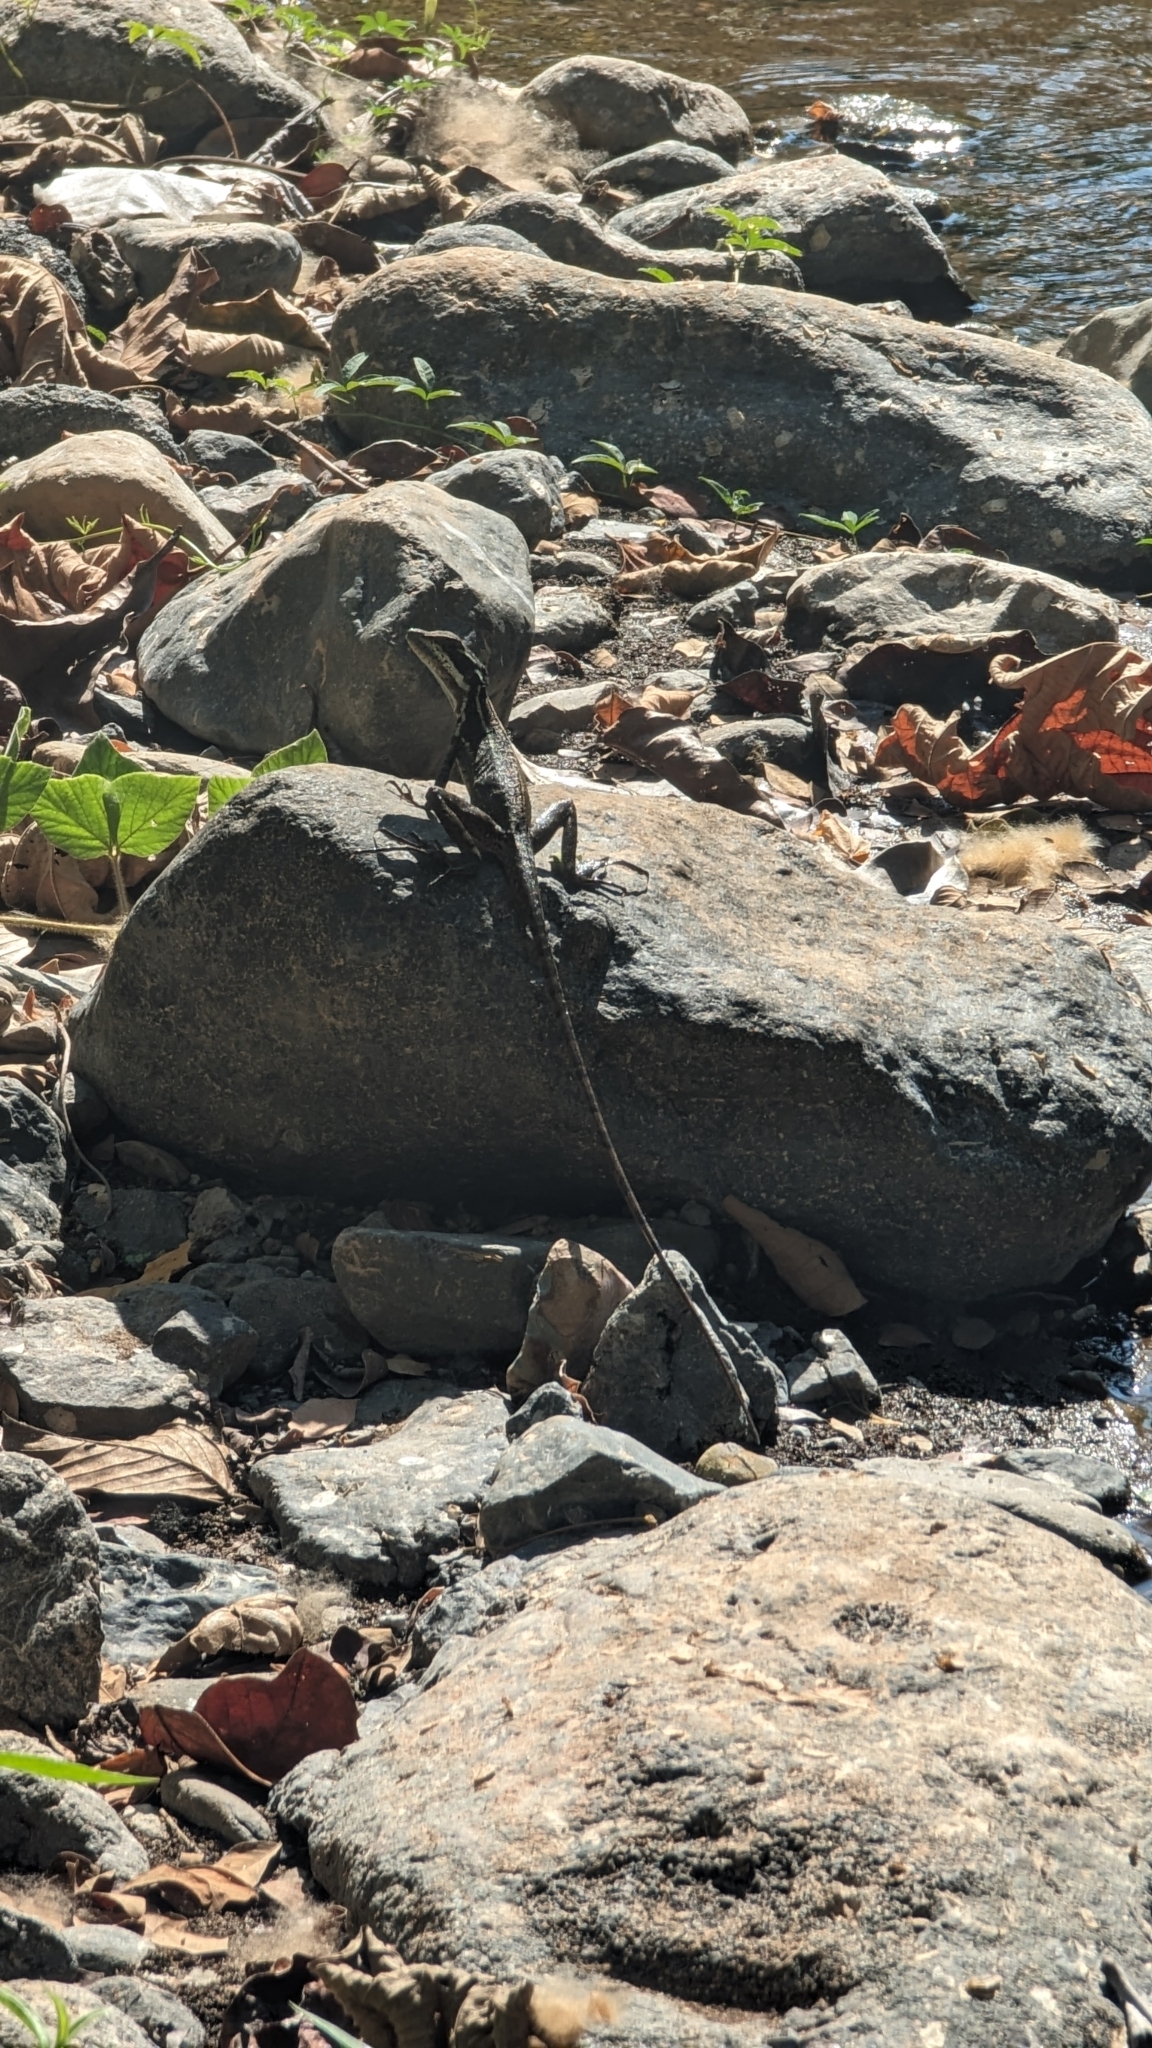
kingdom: Animalia
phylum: Chordata
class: Squamata
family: Corytophanidae
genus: Basiliscus
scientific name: Basiliscus basiliscus
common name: Common basilisk
